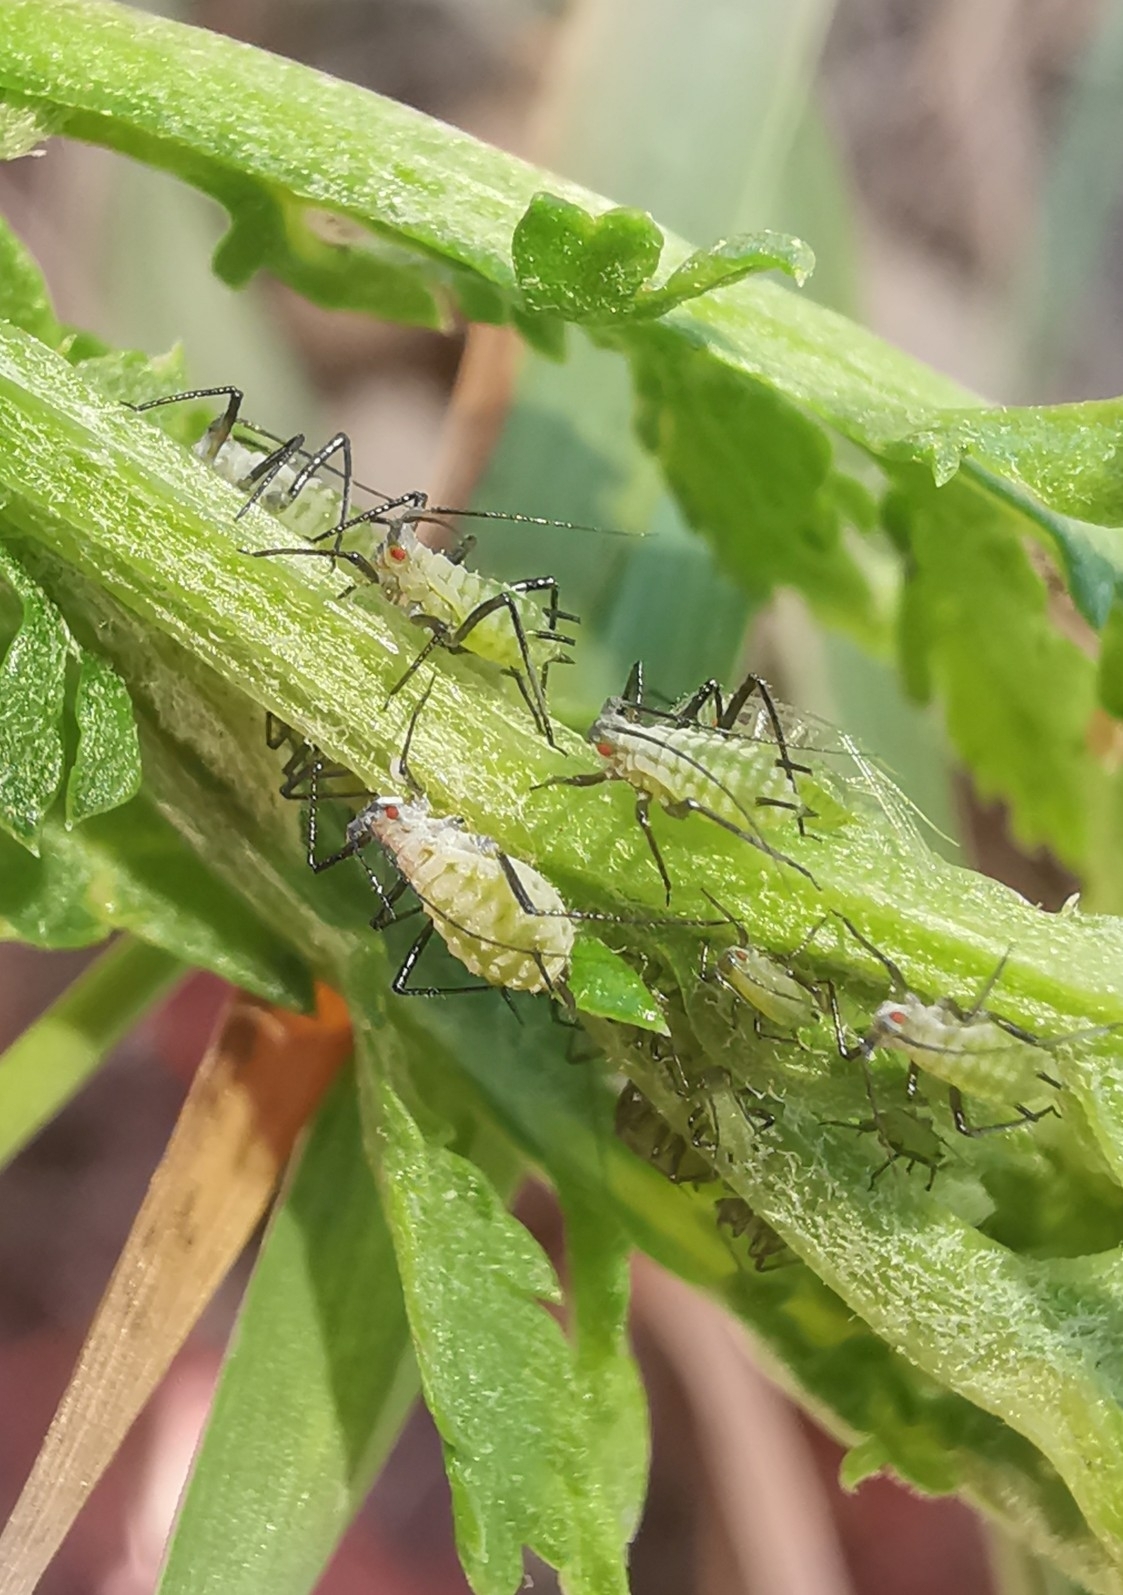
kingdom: Animalia
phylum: Arthropoda
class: Insecta
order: Hemiptera
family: Aphididae
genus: Macrosiphoniella
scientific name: Macrosiphoniella tanacetaria
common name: Aphid
